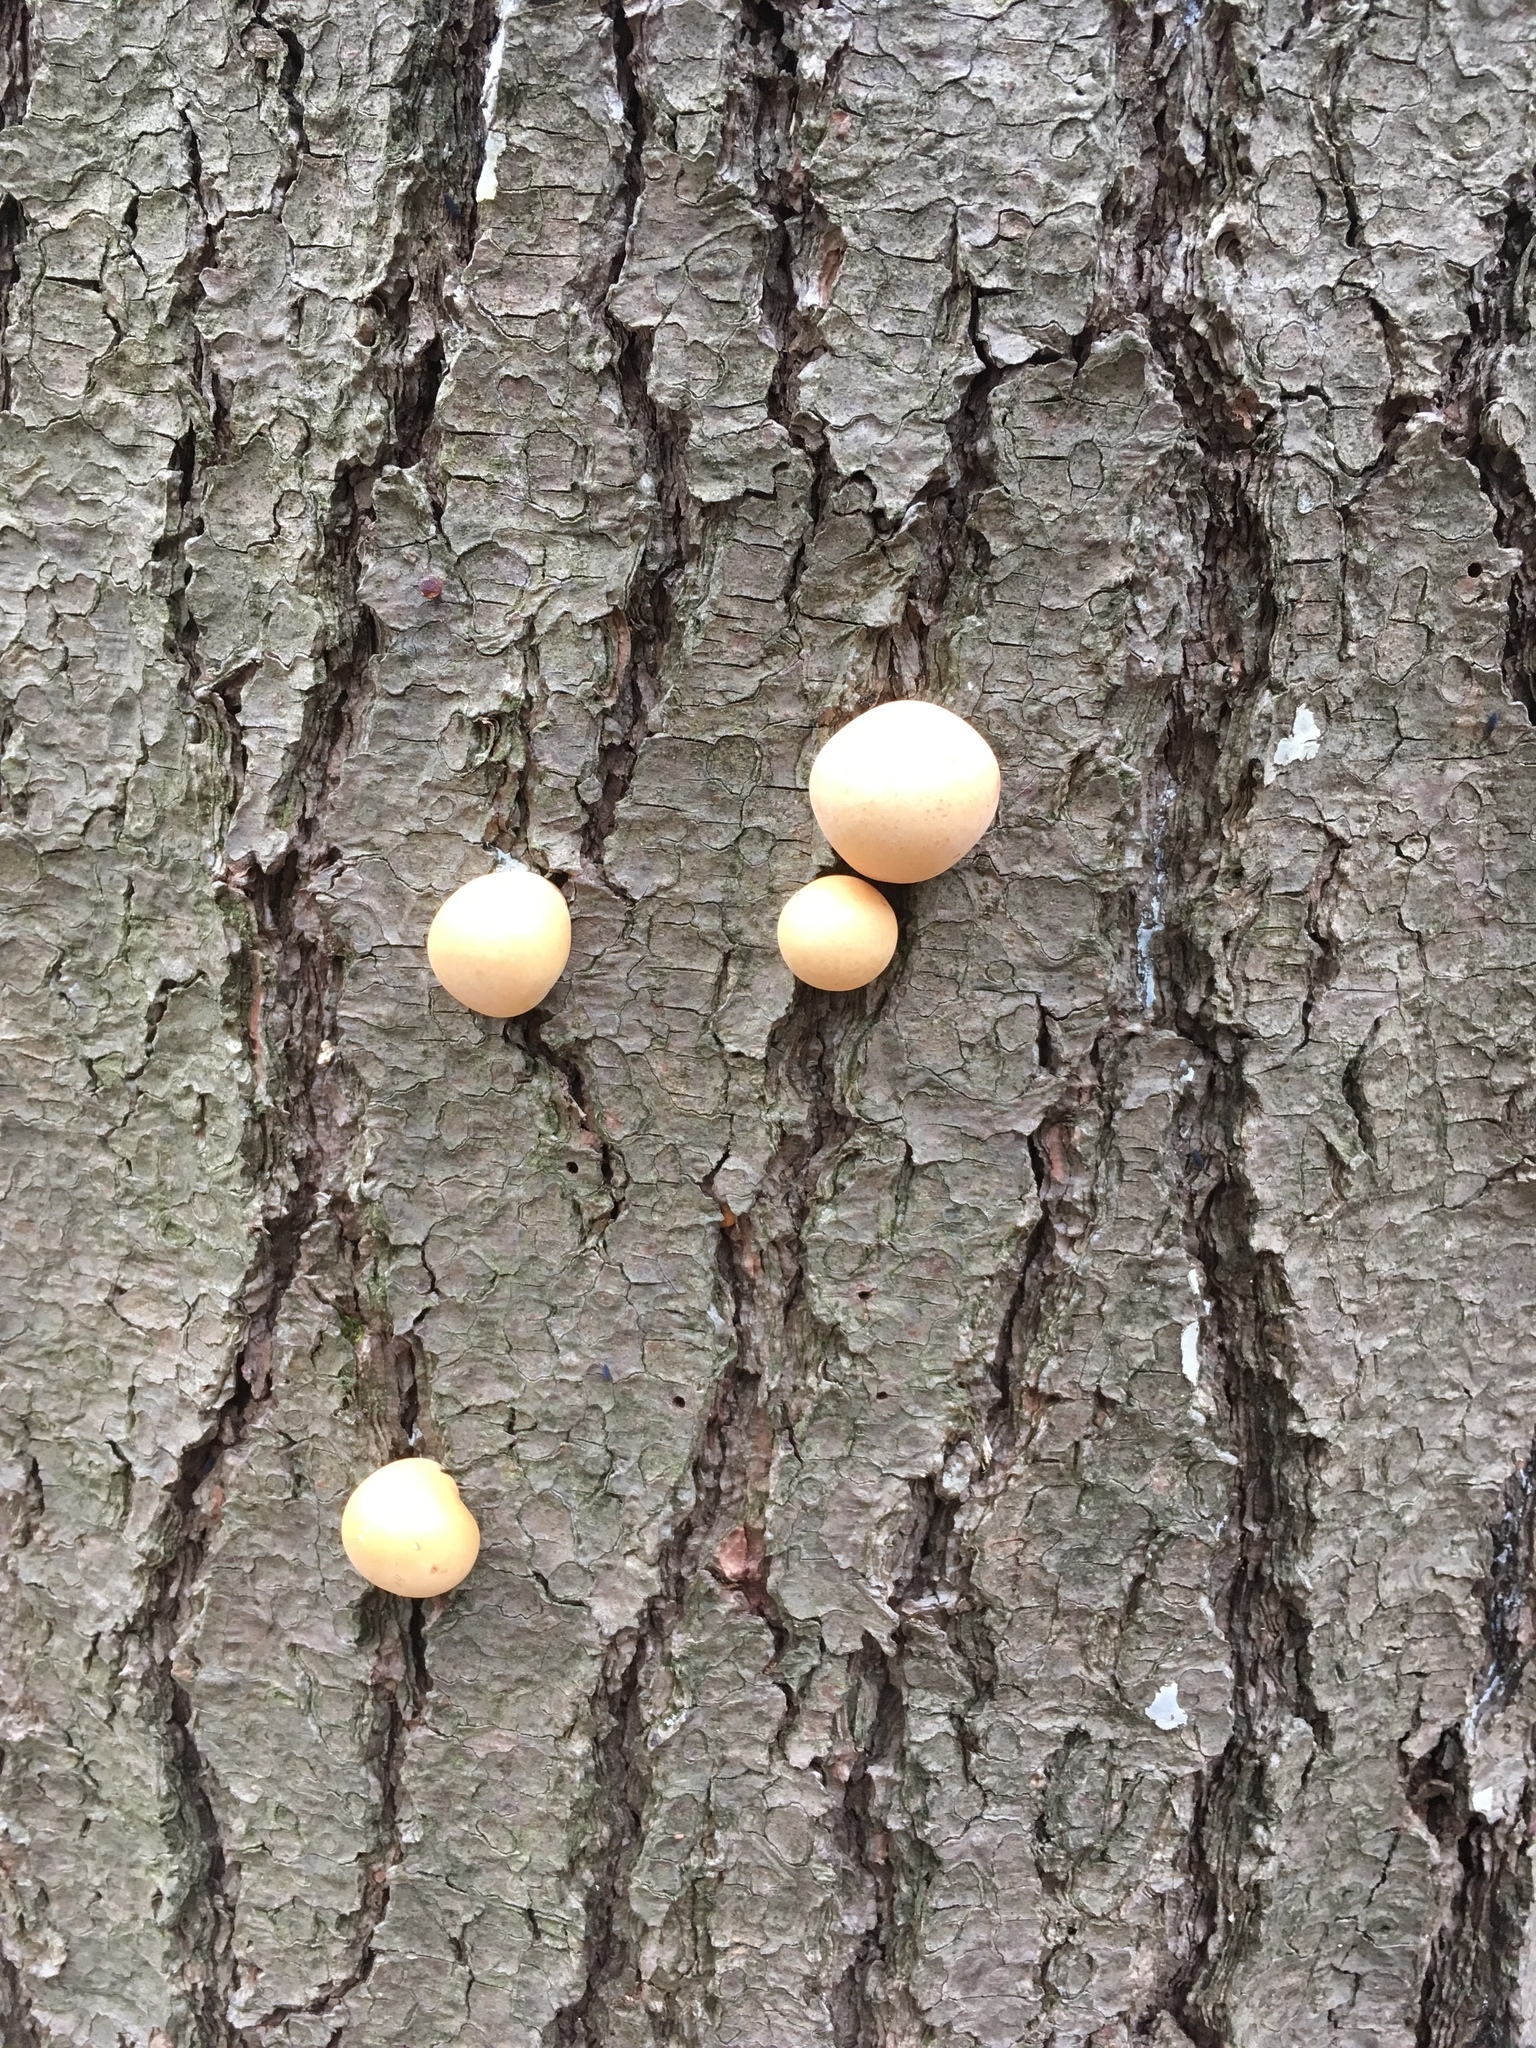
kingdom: Fungi
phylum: Basidiomycota
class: Agaricomycetes
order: Polyporales
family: Polyporaceae
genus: Cryptoporus
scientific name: Cryptoporus volvatus
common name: Veiled polypore
